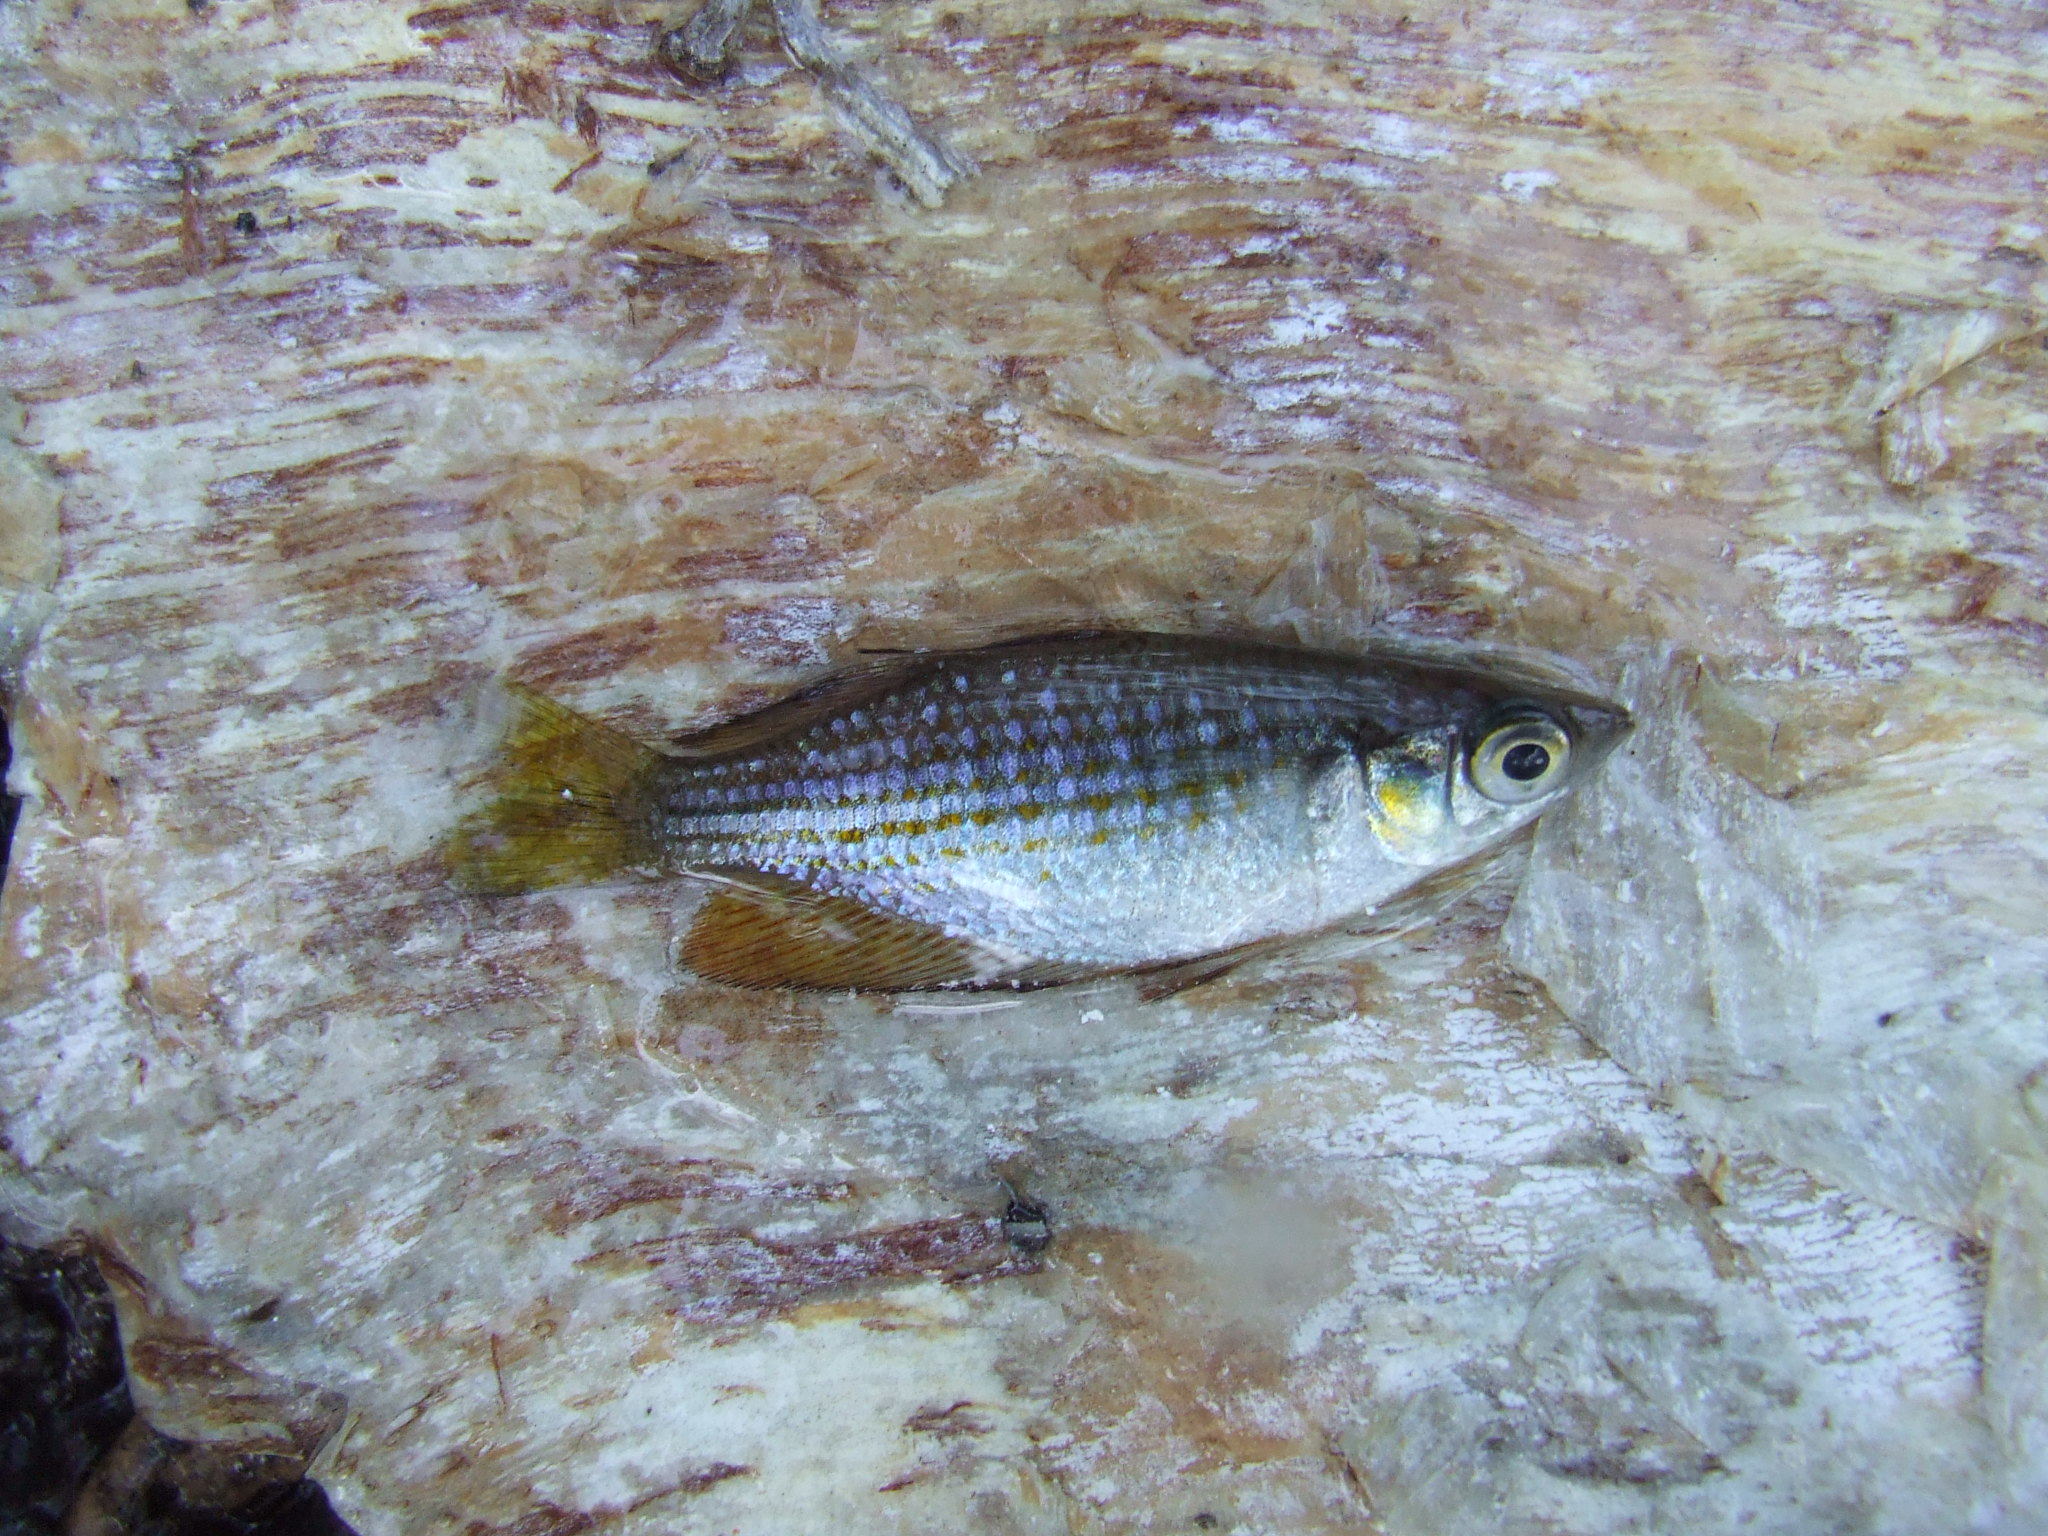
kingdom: Animalia
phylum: Chordata
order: Atheriniformes
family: Melanotaeniidae
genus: Melanotaenia
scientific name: Melanotaenia splendida
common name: Checkered rainbowfish
